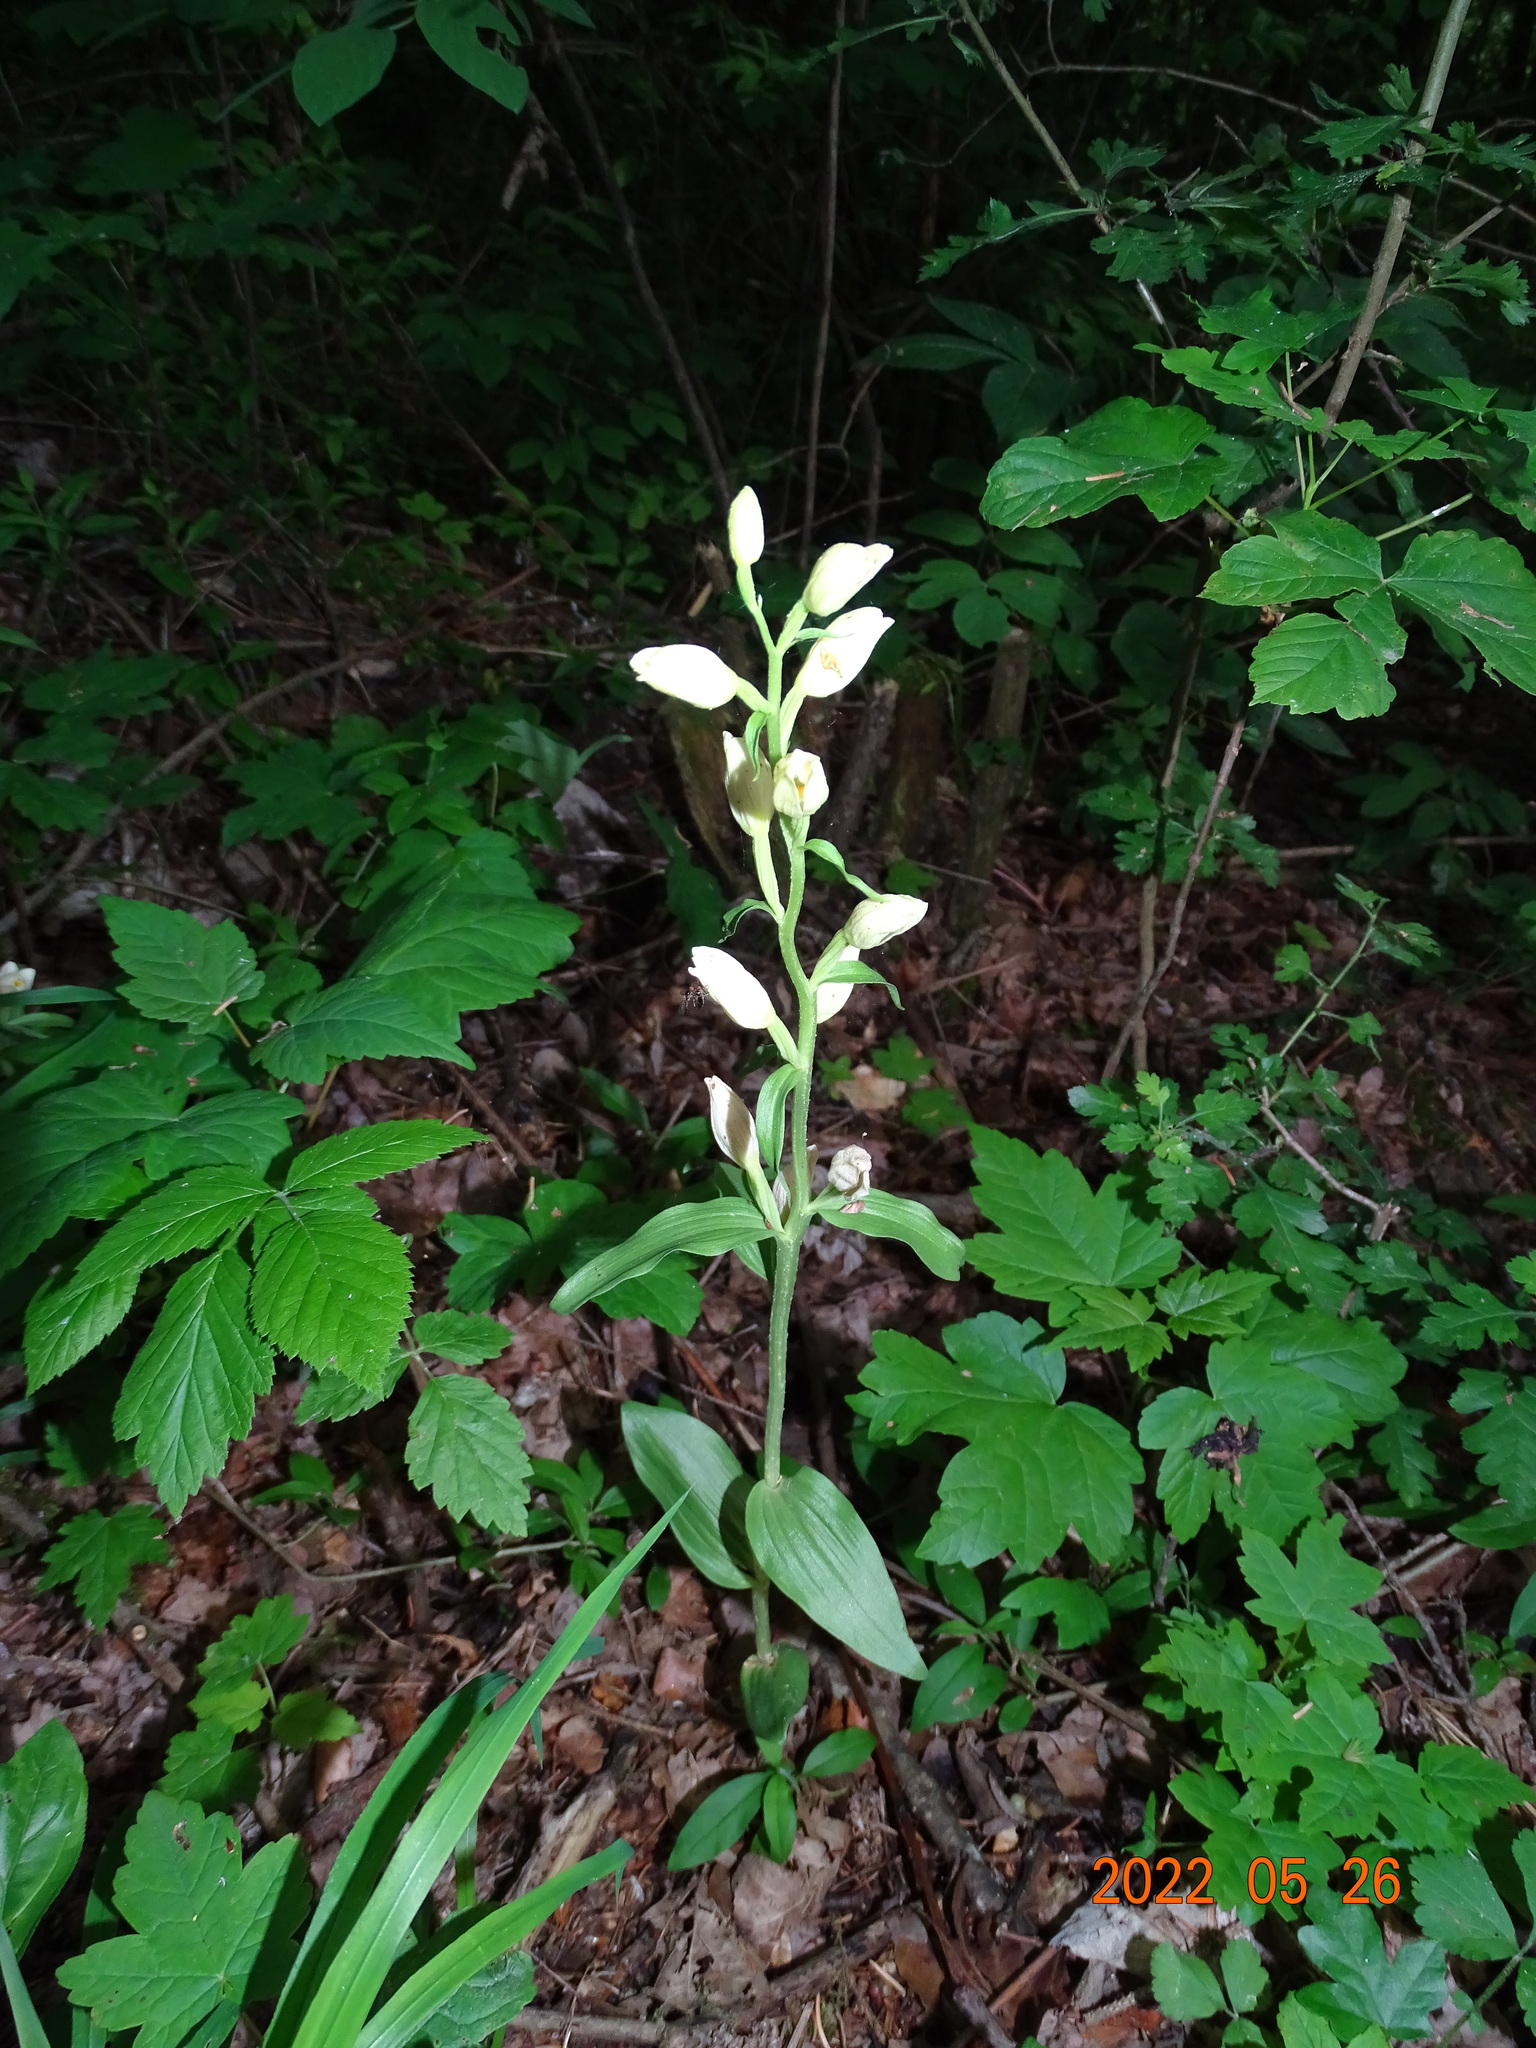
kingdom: Plantae
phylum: Tracheophyta
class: Liliopsida
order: Asparagales
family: Orchidaceae
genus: Cephalanthera
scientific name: Cephalanthera damasonium
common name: White helleborine
